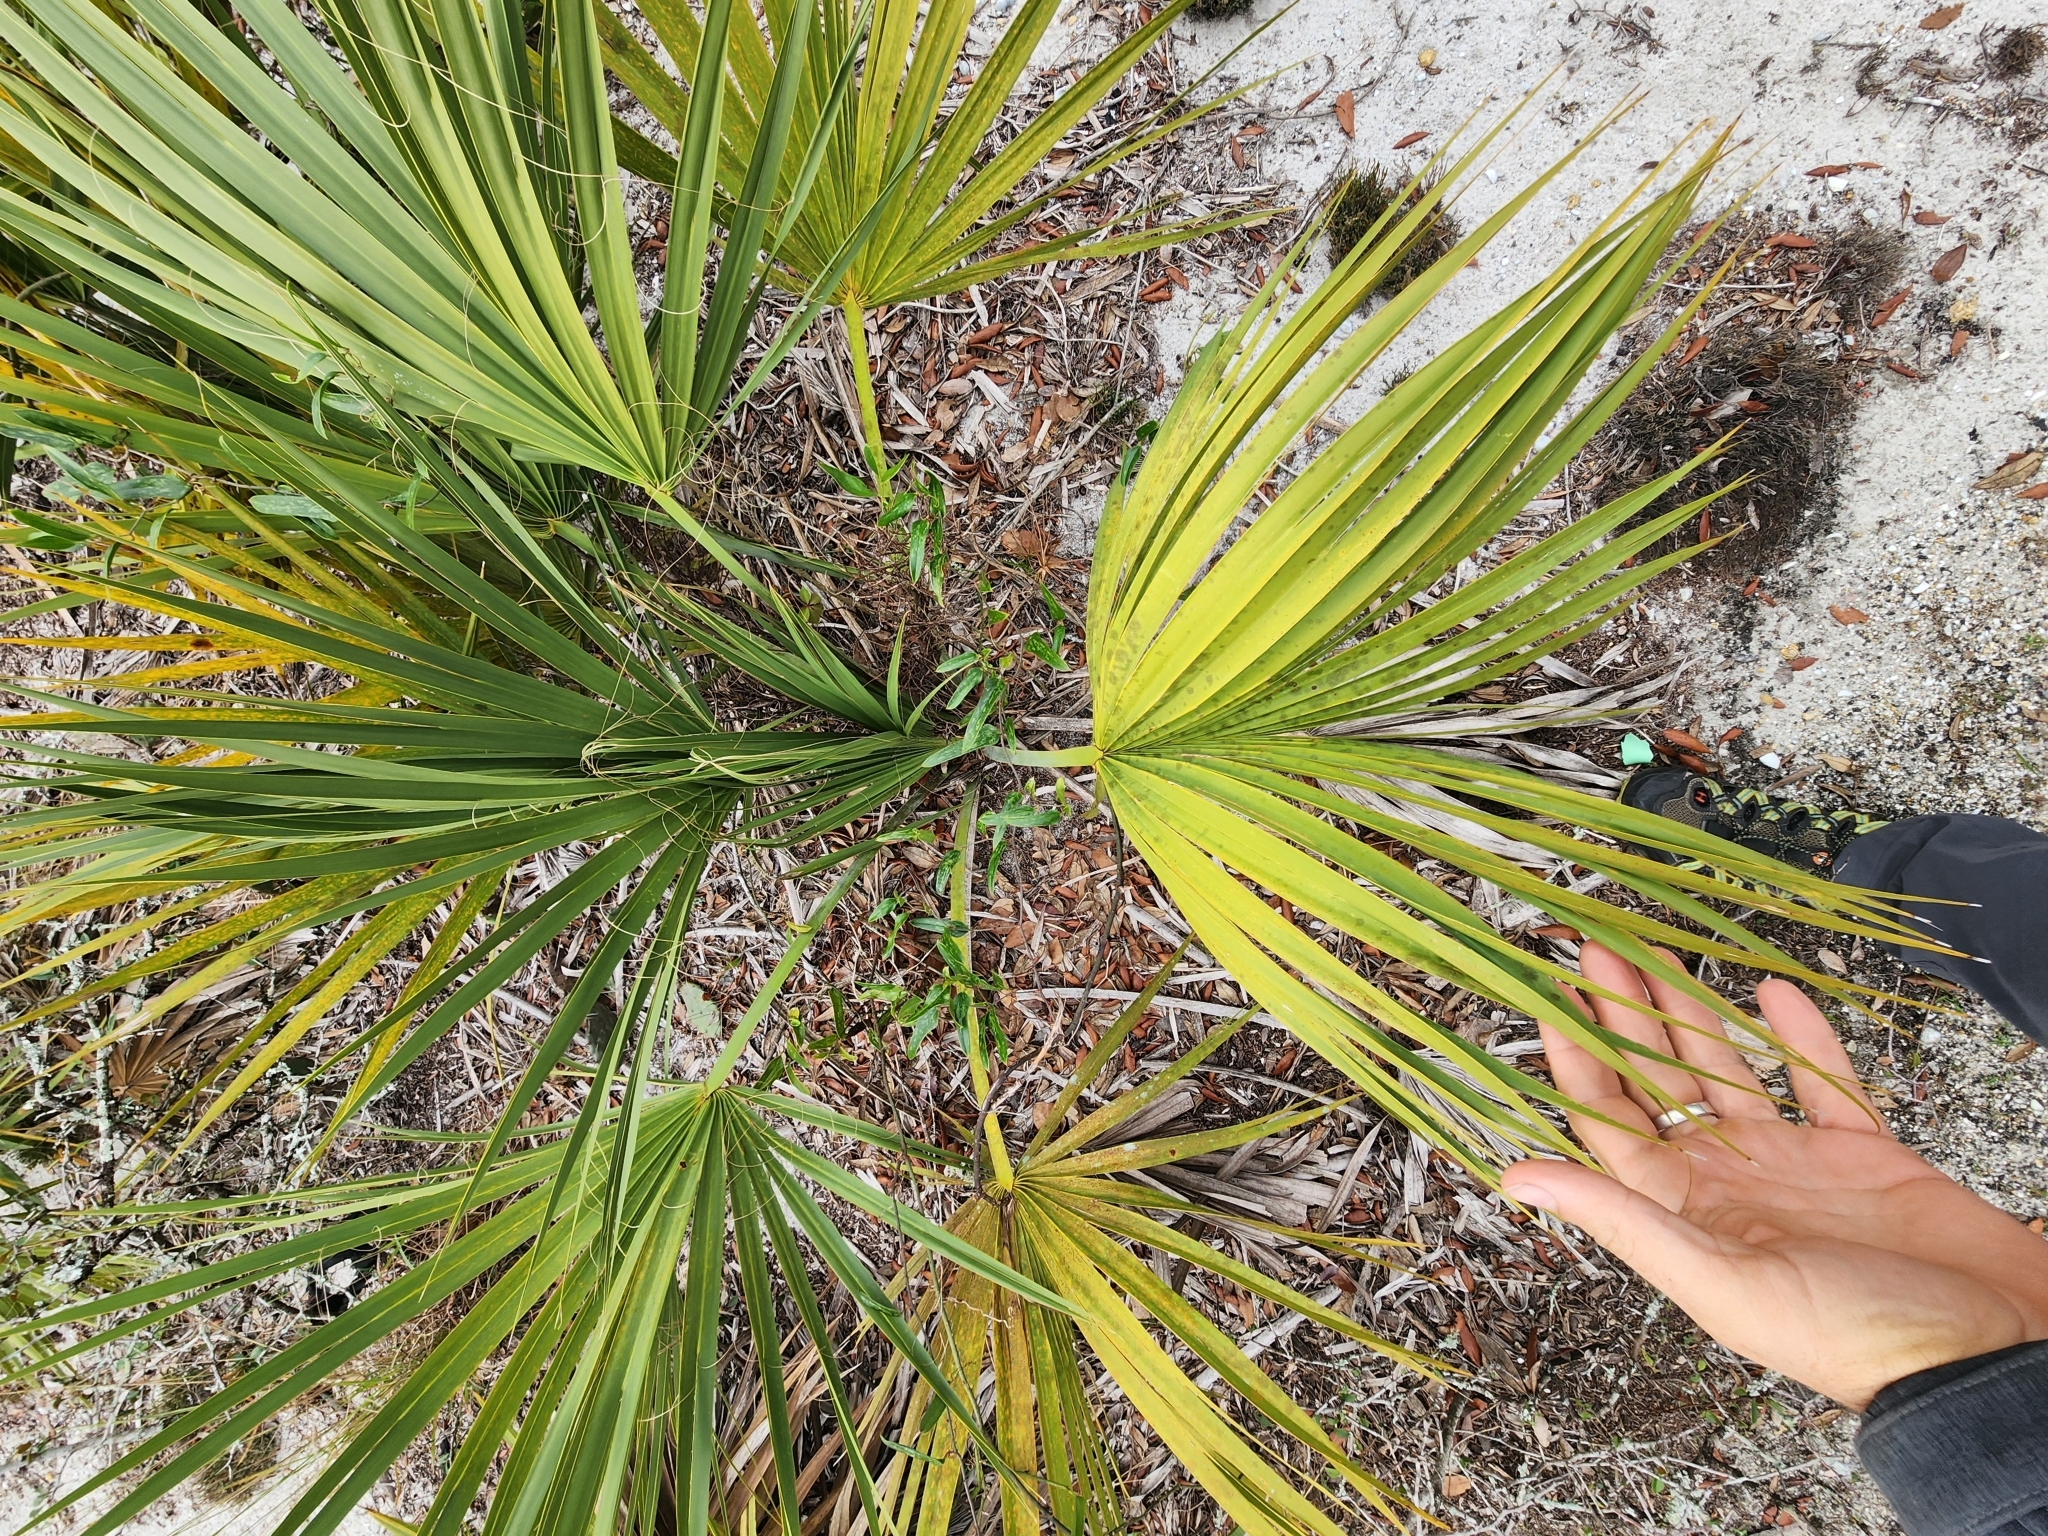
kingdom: Plantae
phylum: Tracheophyta
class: Liliopsida
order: Arecales
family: Arecaceae
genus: Sabal
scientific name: Sabal etonia
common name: Dwarf palmetto
